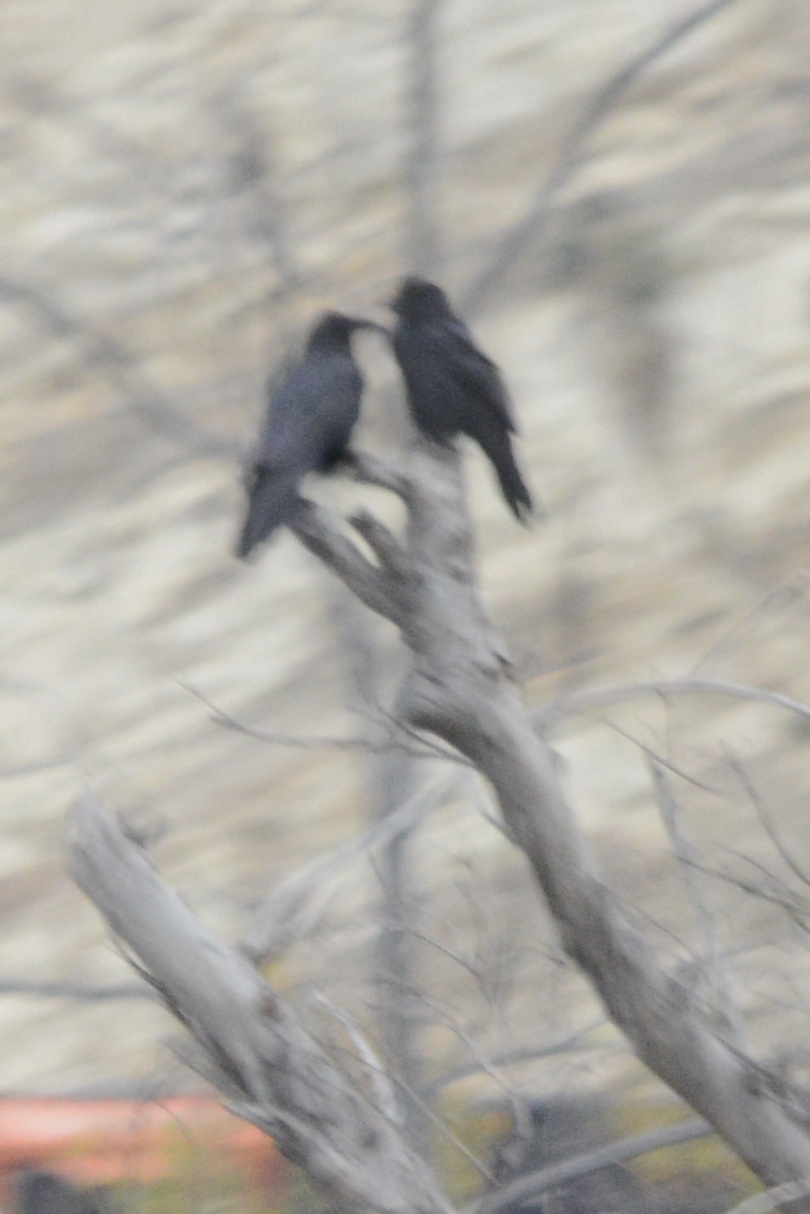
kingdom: Animalia
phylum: Chordata
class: Aves
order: Passeriformes
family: Corvidae
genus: Corvus
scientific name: Corvus brachyrhynchos
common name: American crow
